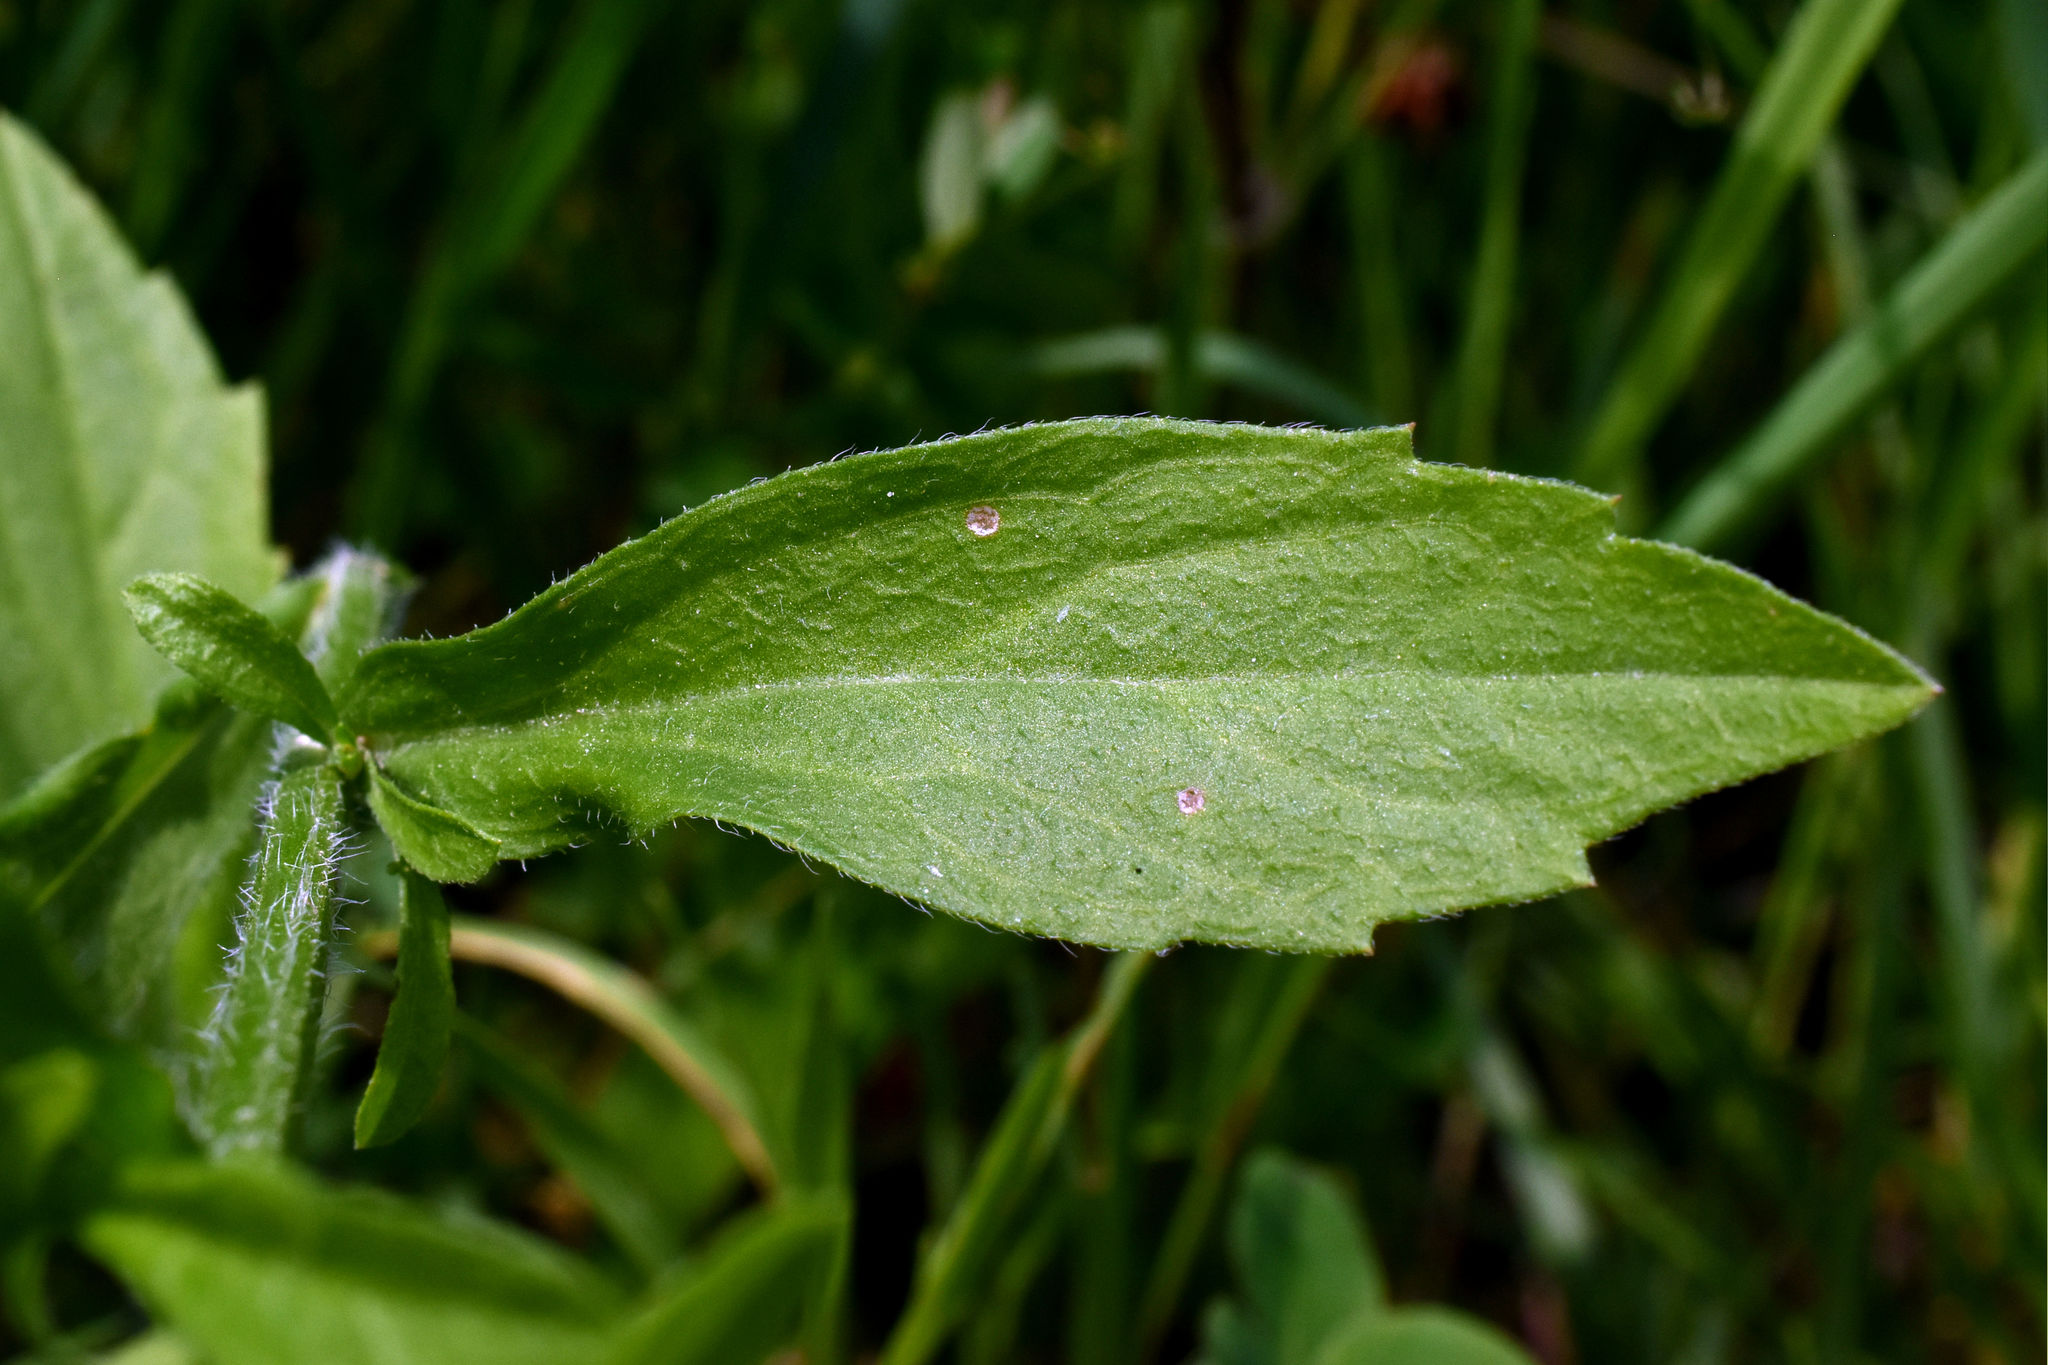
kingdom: Plantae
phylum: Tracheophyta
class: Magnoliopsida
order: Asterales
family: Asteraceae
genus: Erigeron
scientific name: Erigeron annuus
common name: Tall fleabane
